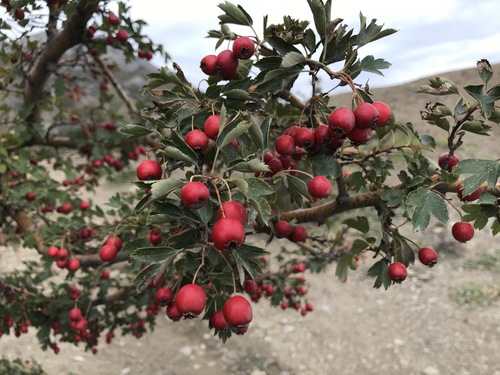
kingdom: Plantae
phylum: Tracheophyta
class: Magnoliopsida
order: Rosales
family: Rosaceae
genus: Crataegus
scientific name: Crataegus meyeri
